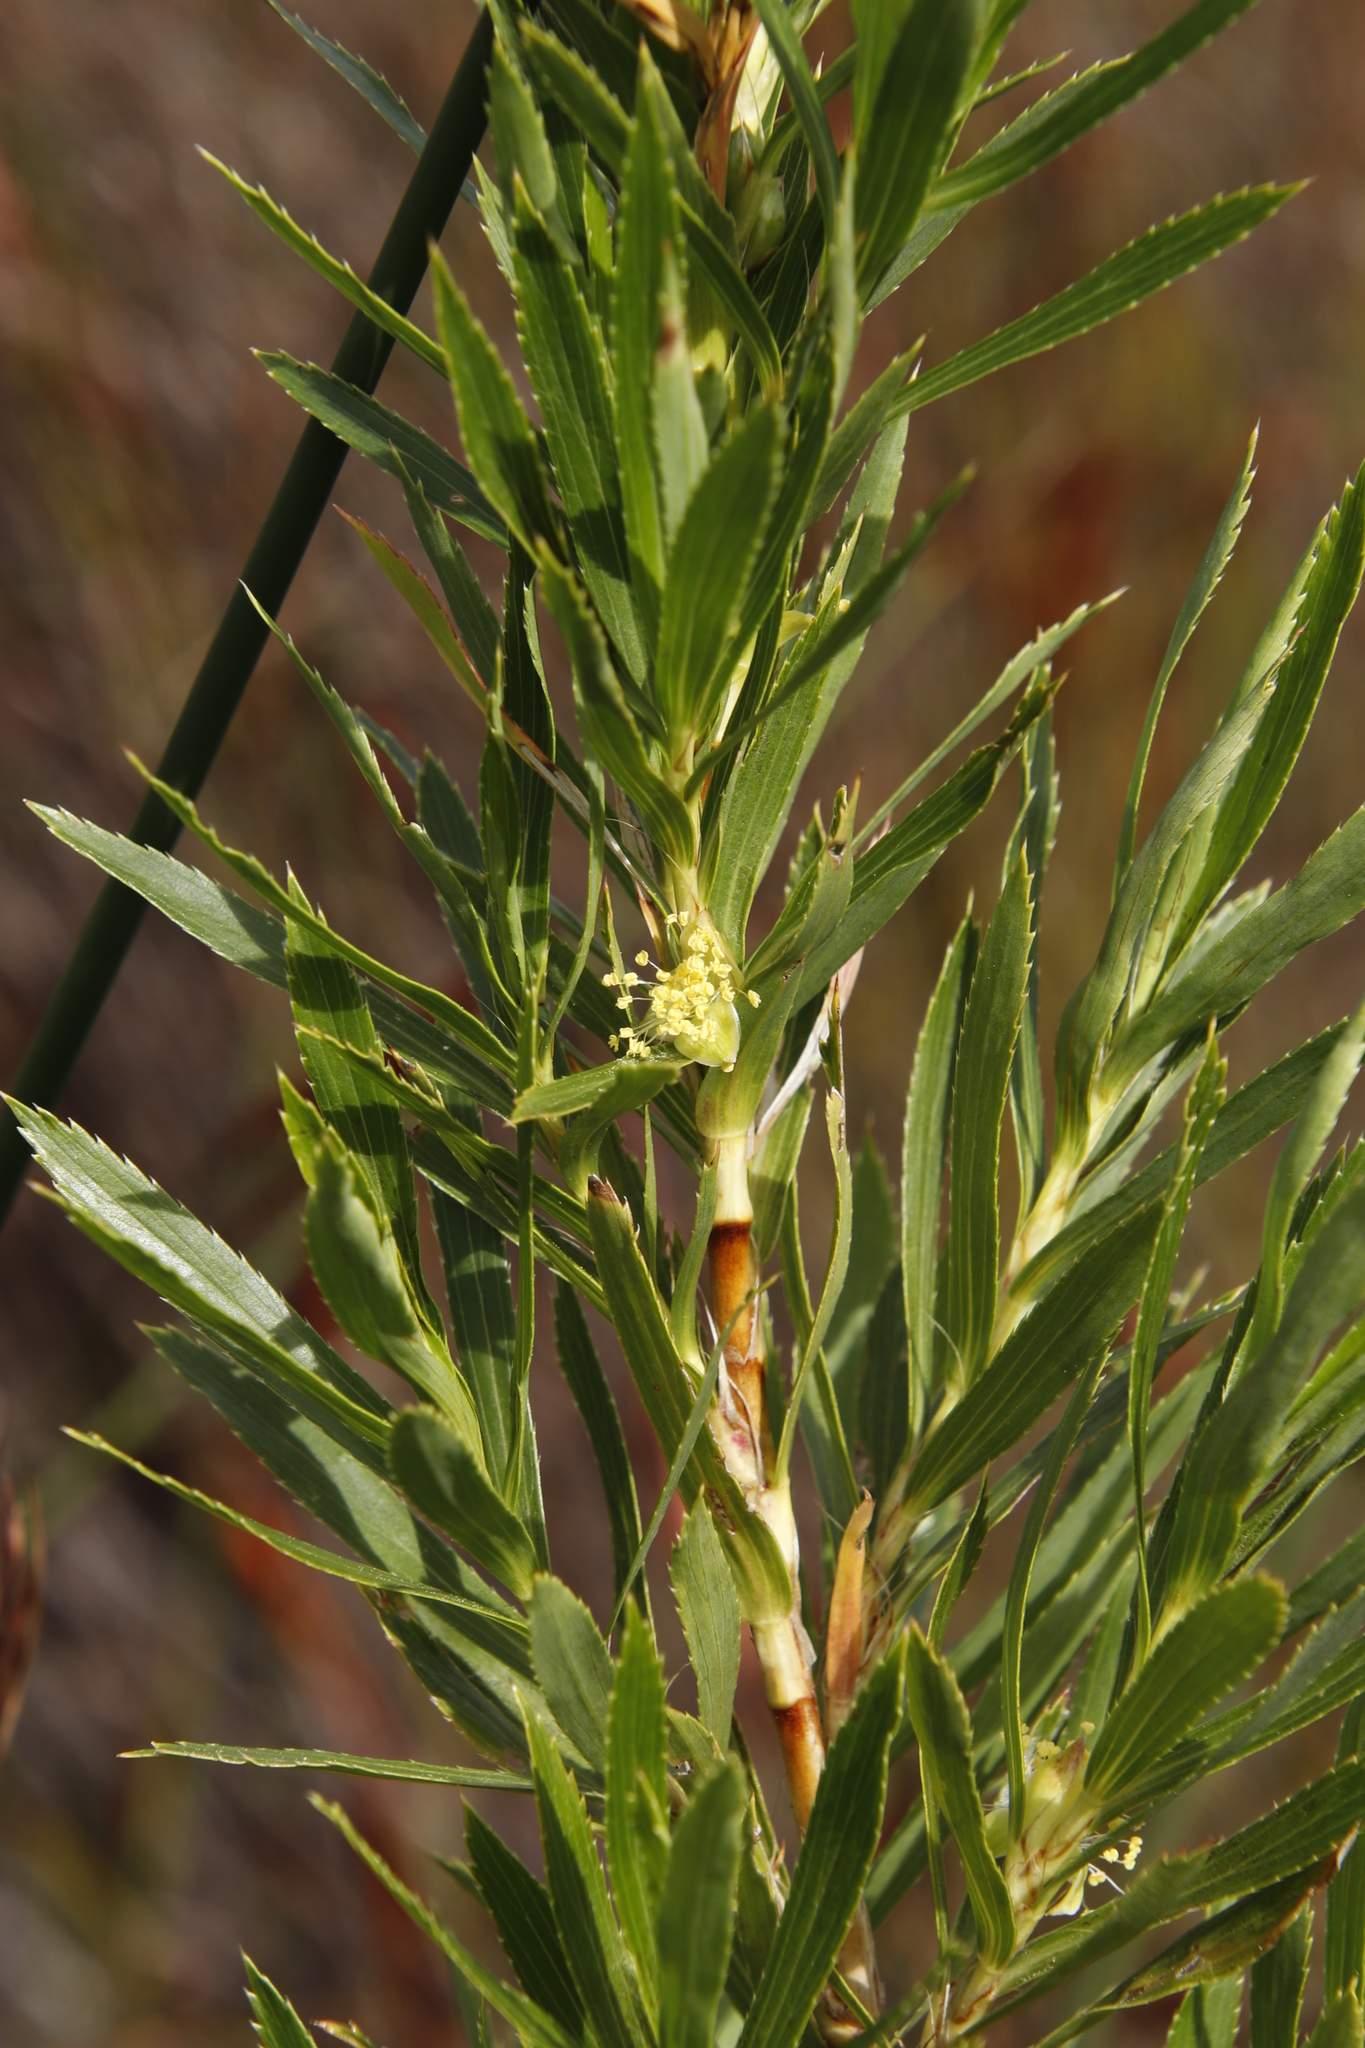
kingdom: Plantae
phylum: Tracheophyta
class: Magnoliopsida
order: Rosales
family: Rosaceae
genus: Cliffortia
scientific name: Cliffortia heterophylla
